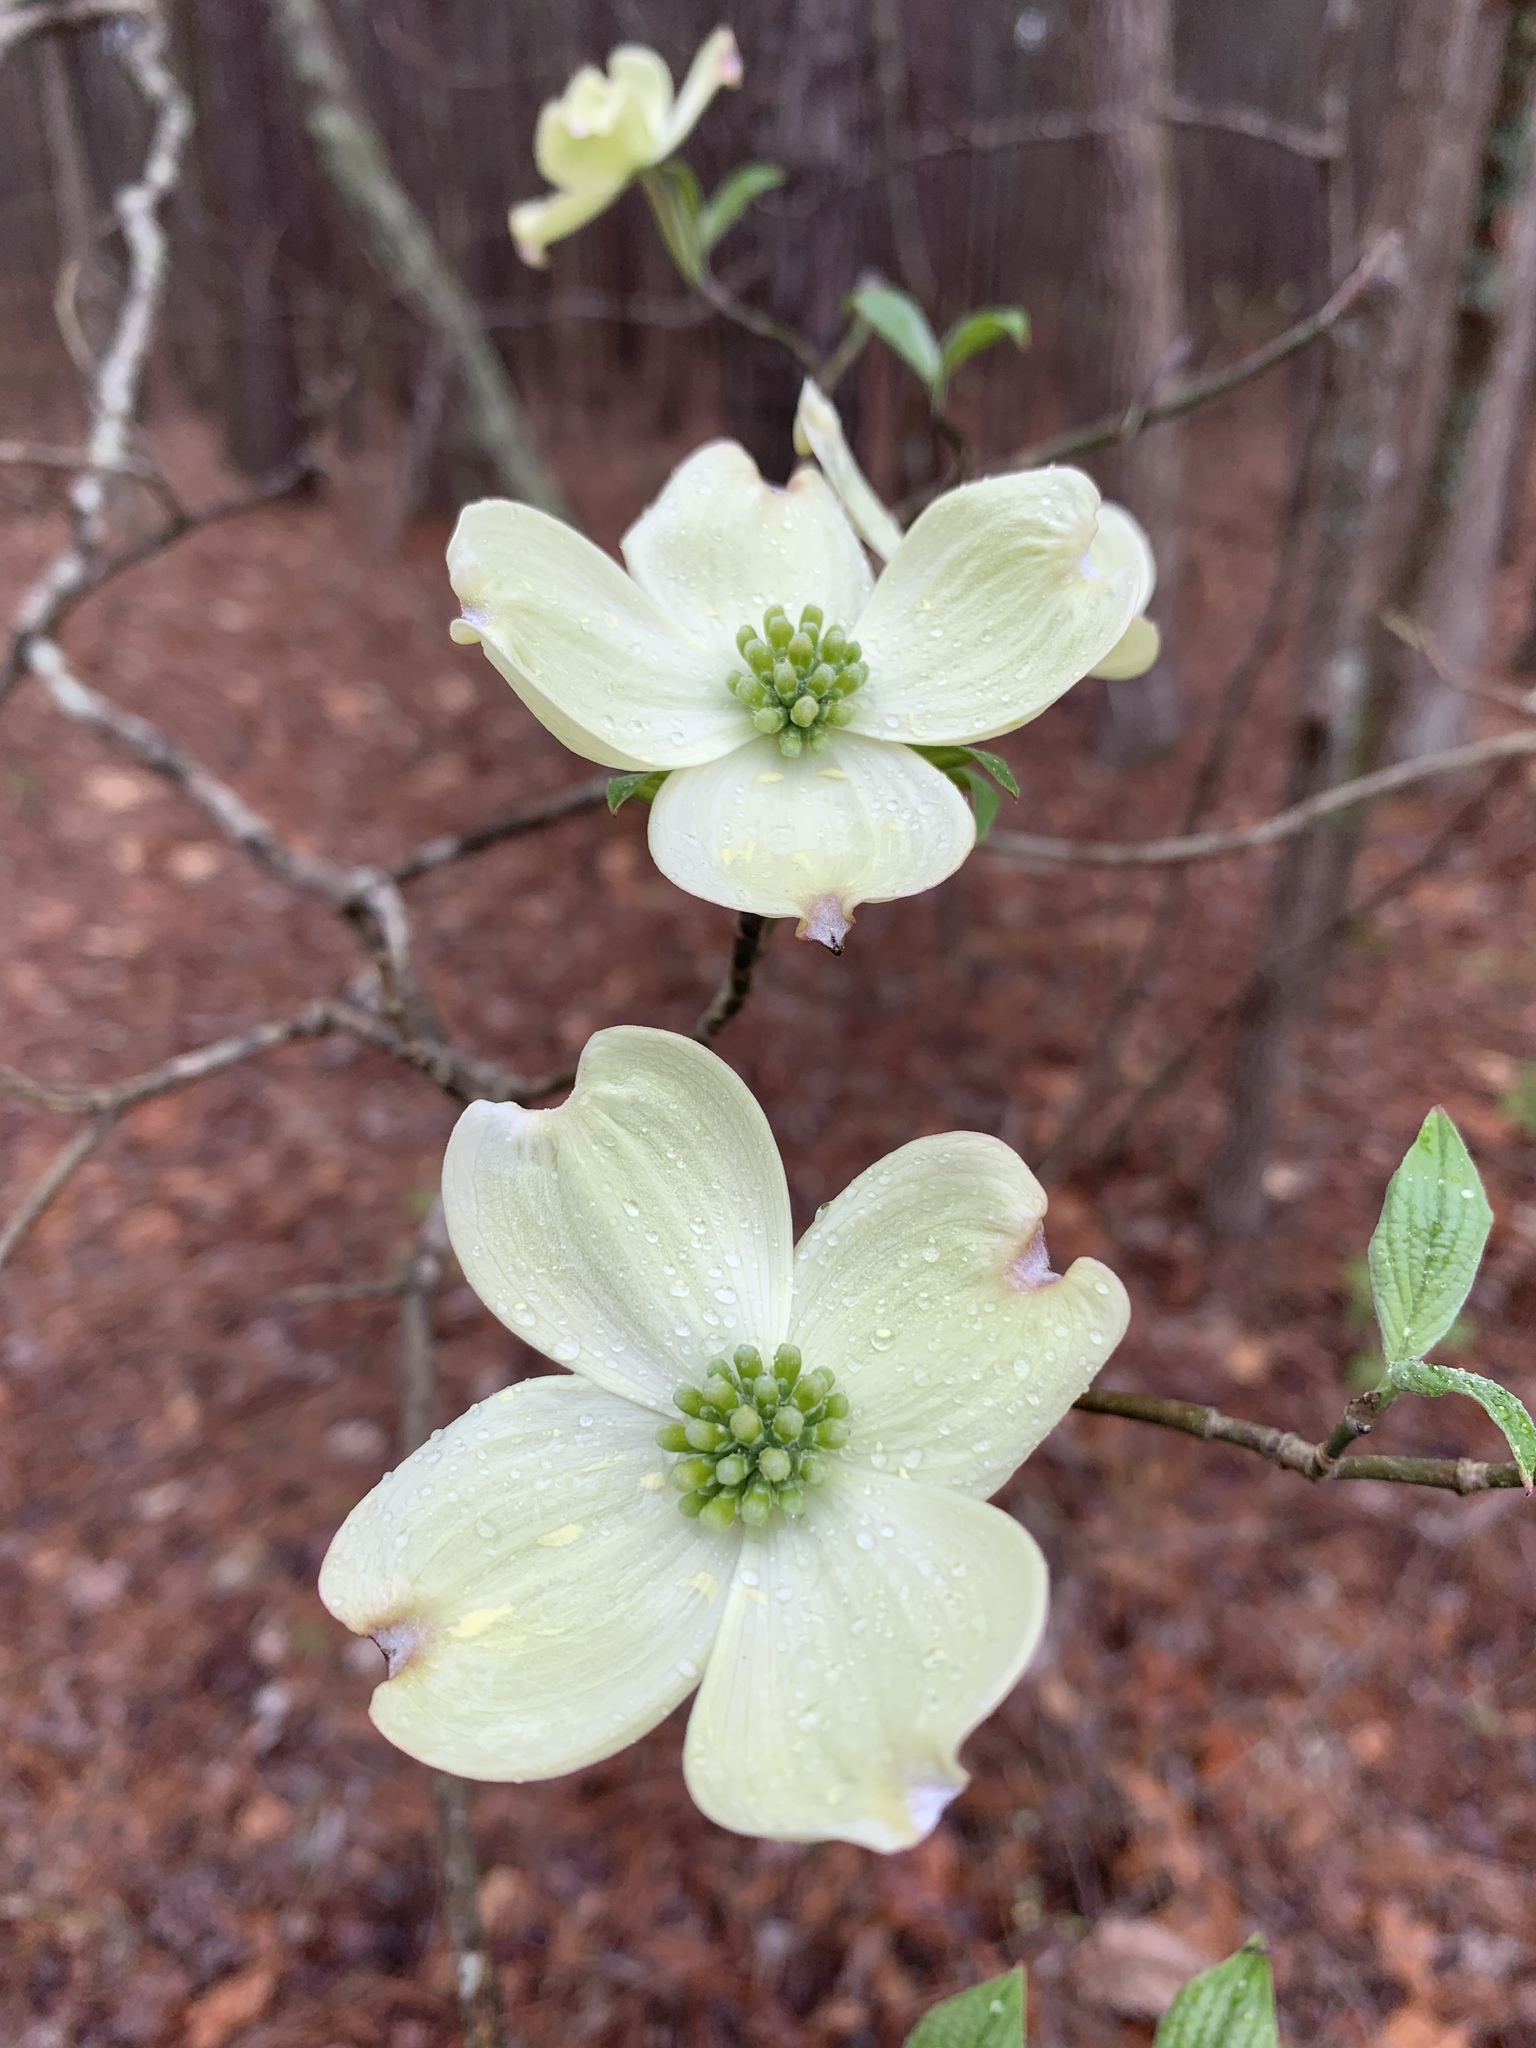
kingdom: Plantae
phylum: Tracheophyta
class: Magnoliopsida
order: Cornales
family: Cornaceae
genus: Cornus
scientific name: Cornus florida
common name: Flowering dogwood
